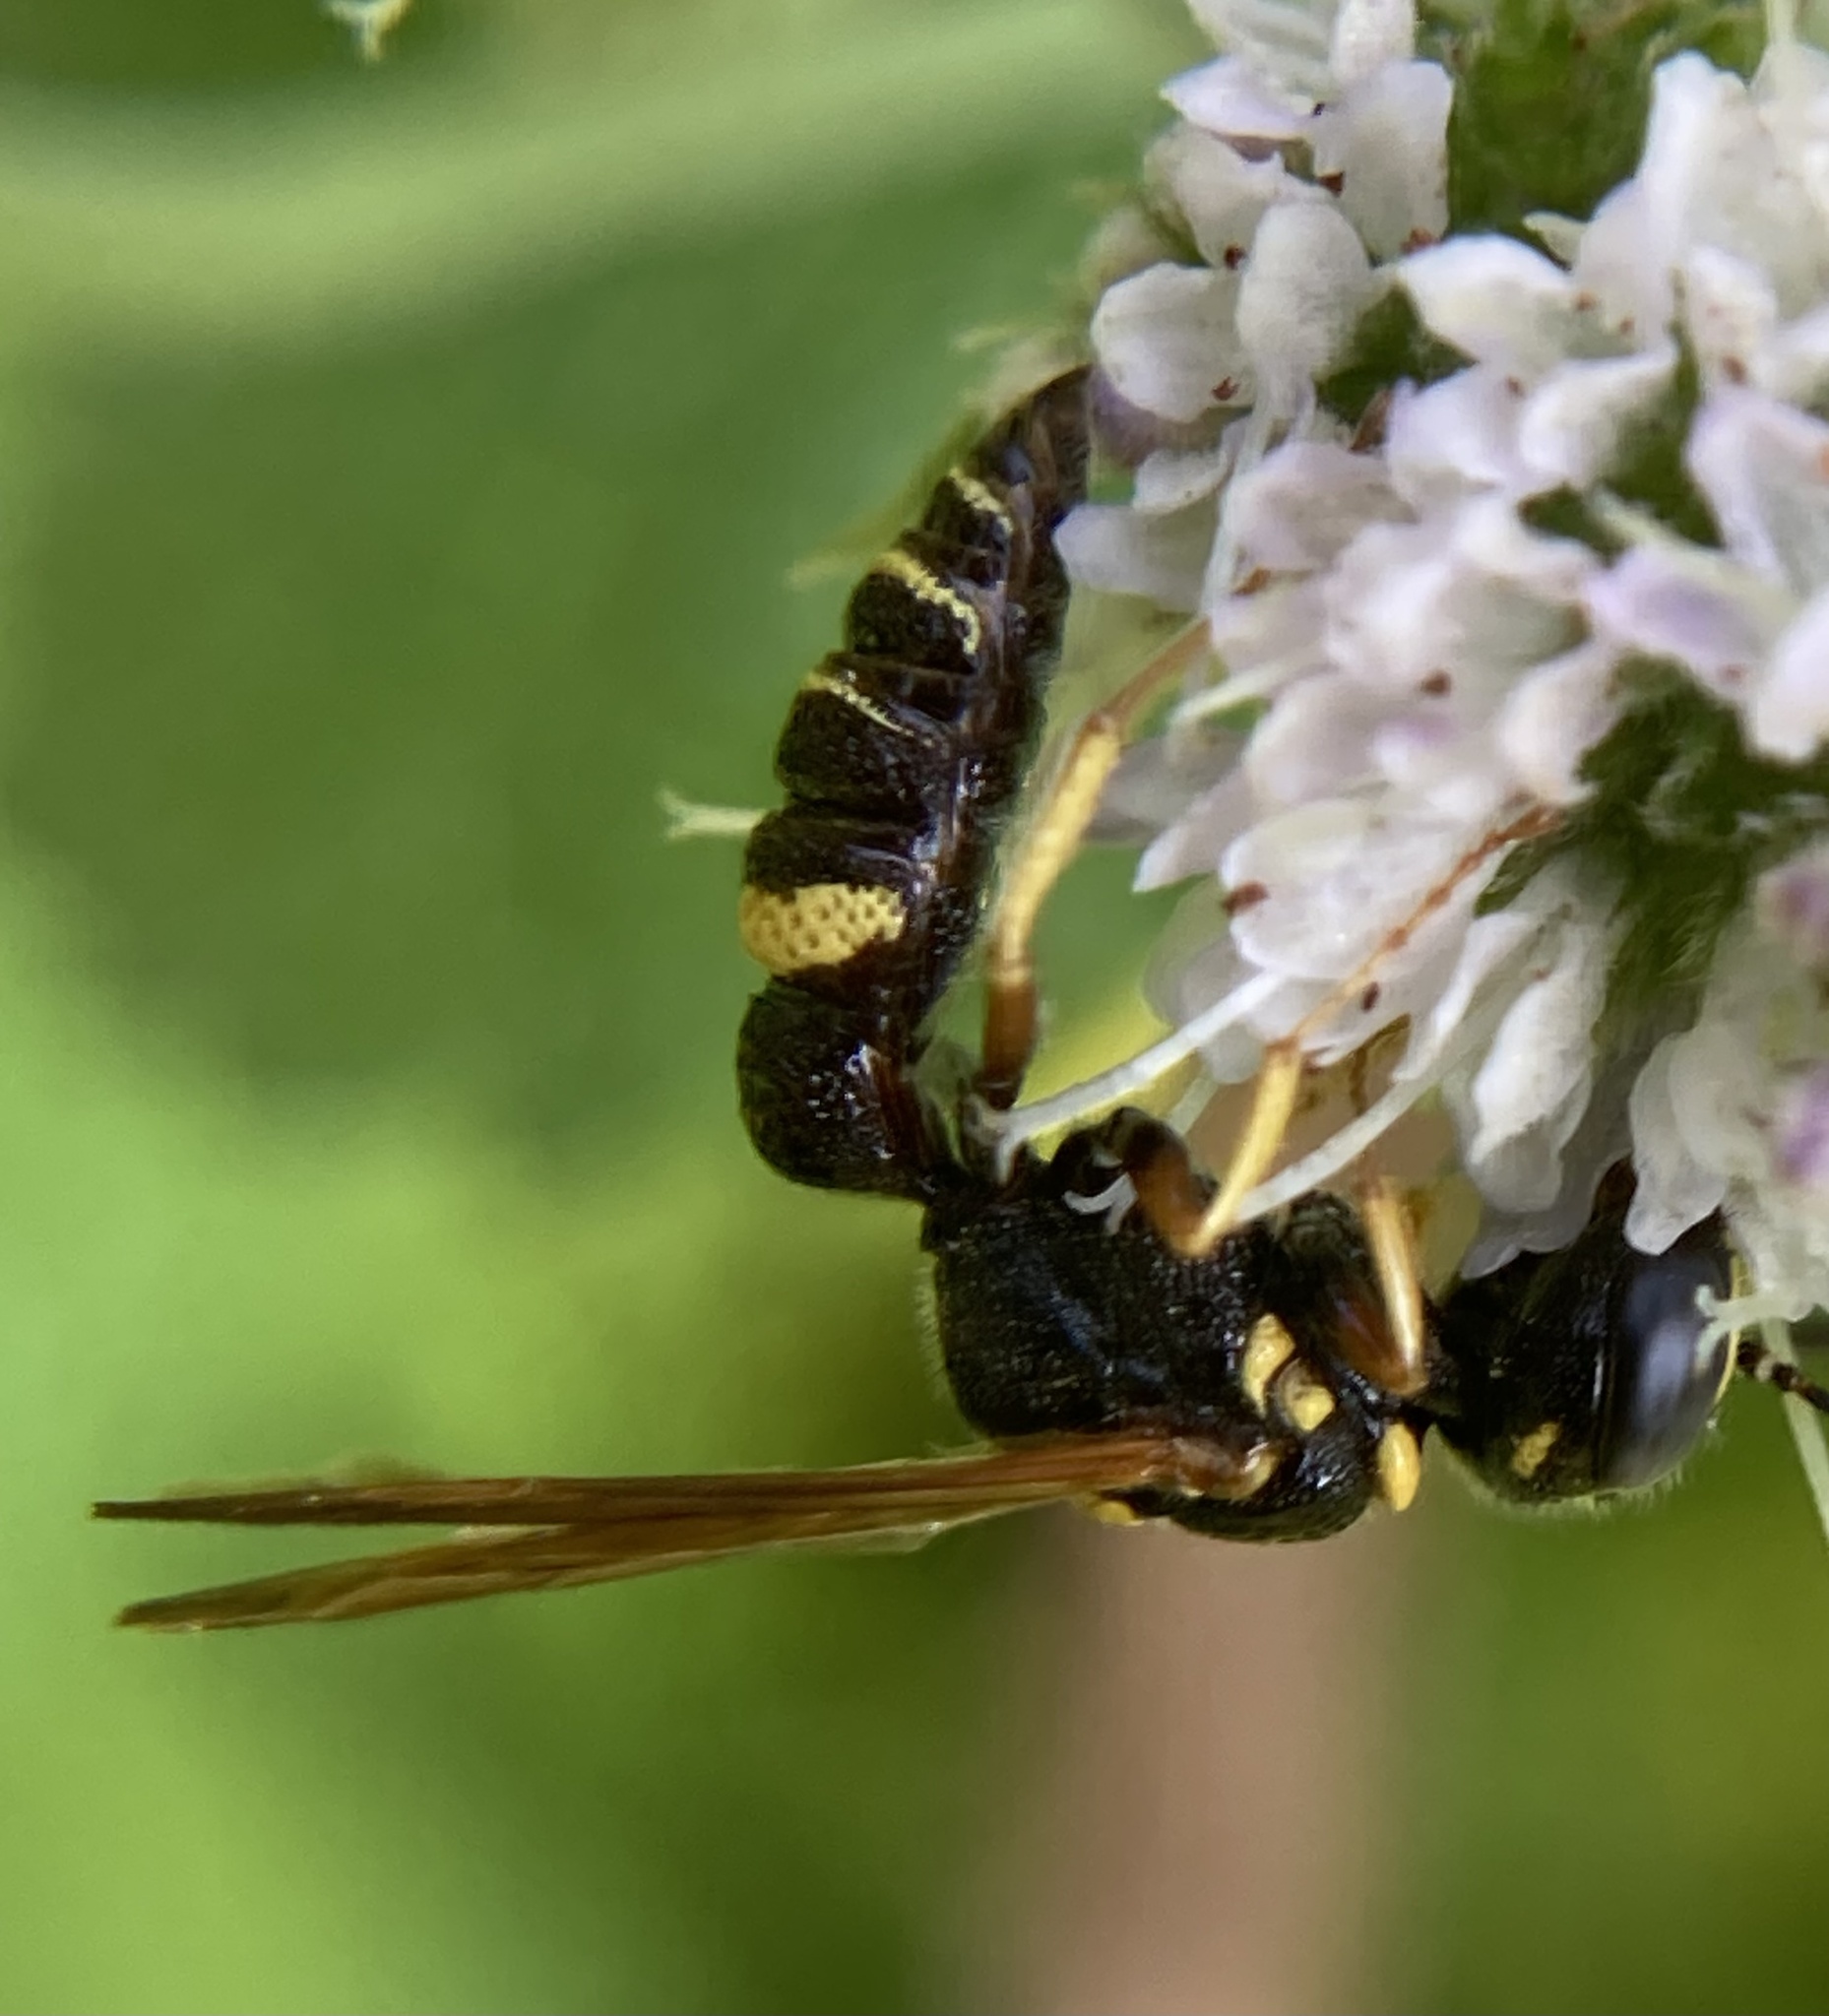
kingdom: Animalia
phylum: Arthropoda
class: Insecta
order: Hymenoptera
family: Crabronidae
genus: Philanthus
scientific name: Philanthus gibbosus
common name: Humped beewolf
